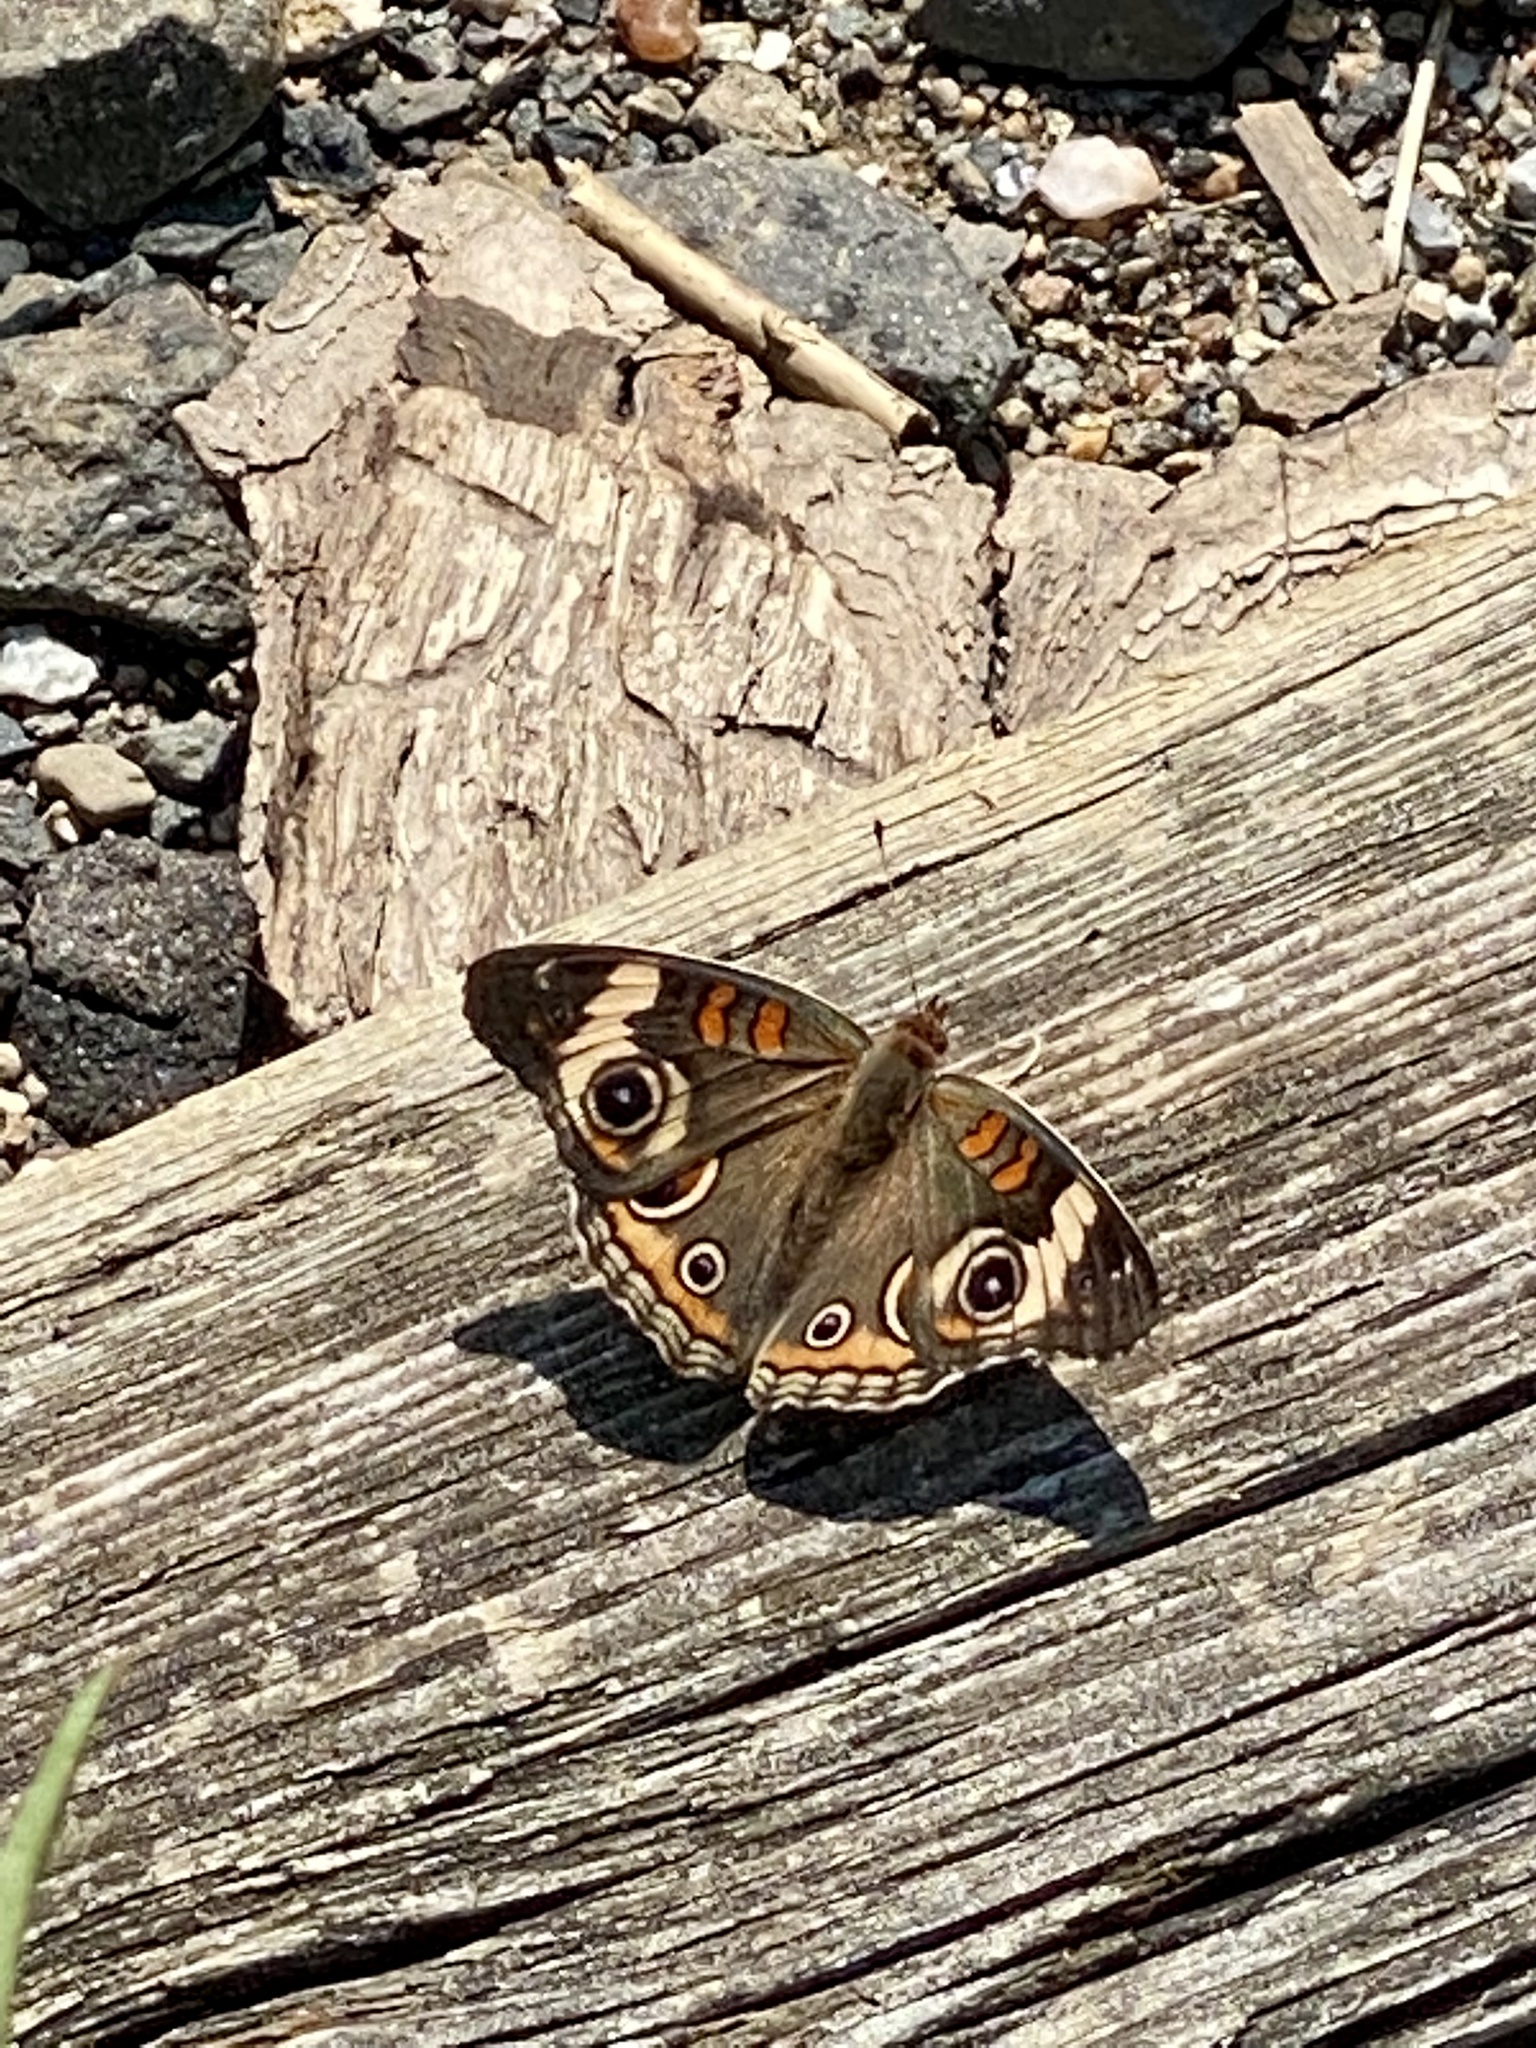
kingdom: Animalia
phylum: Arthropoda
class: Insecta
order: Lepidoptera
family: Nymphalidae
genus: Junonia
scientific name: Junonia coenia
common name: Common buckeye
